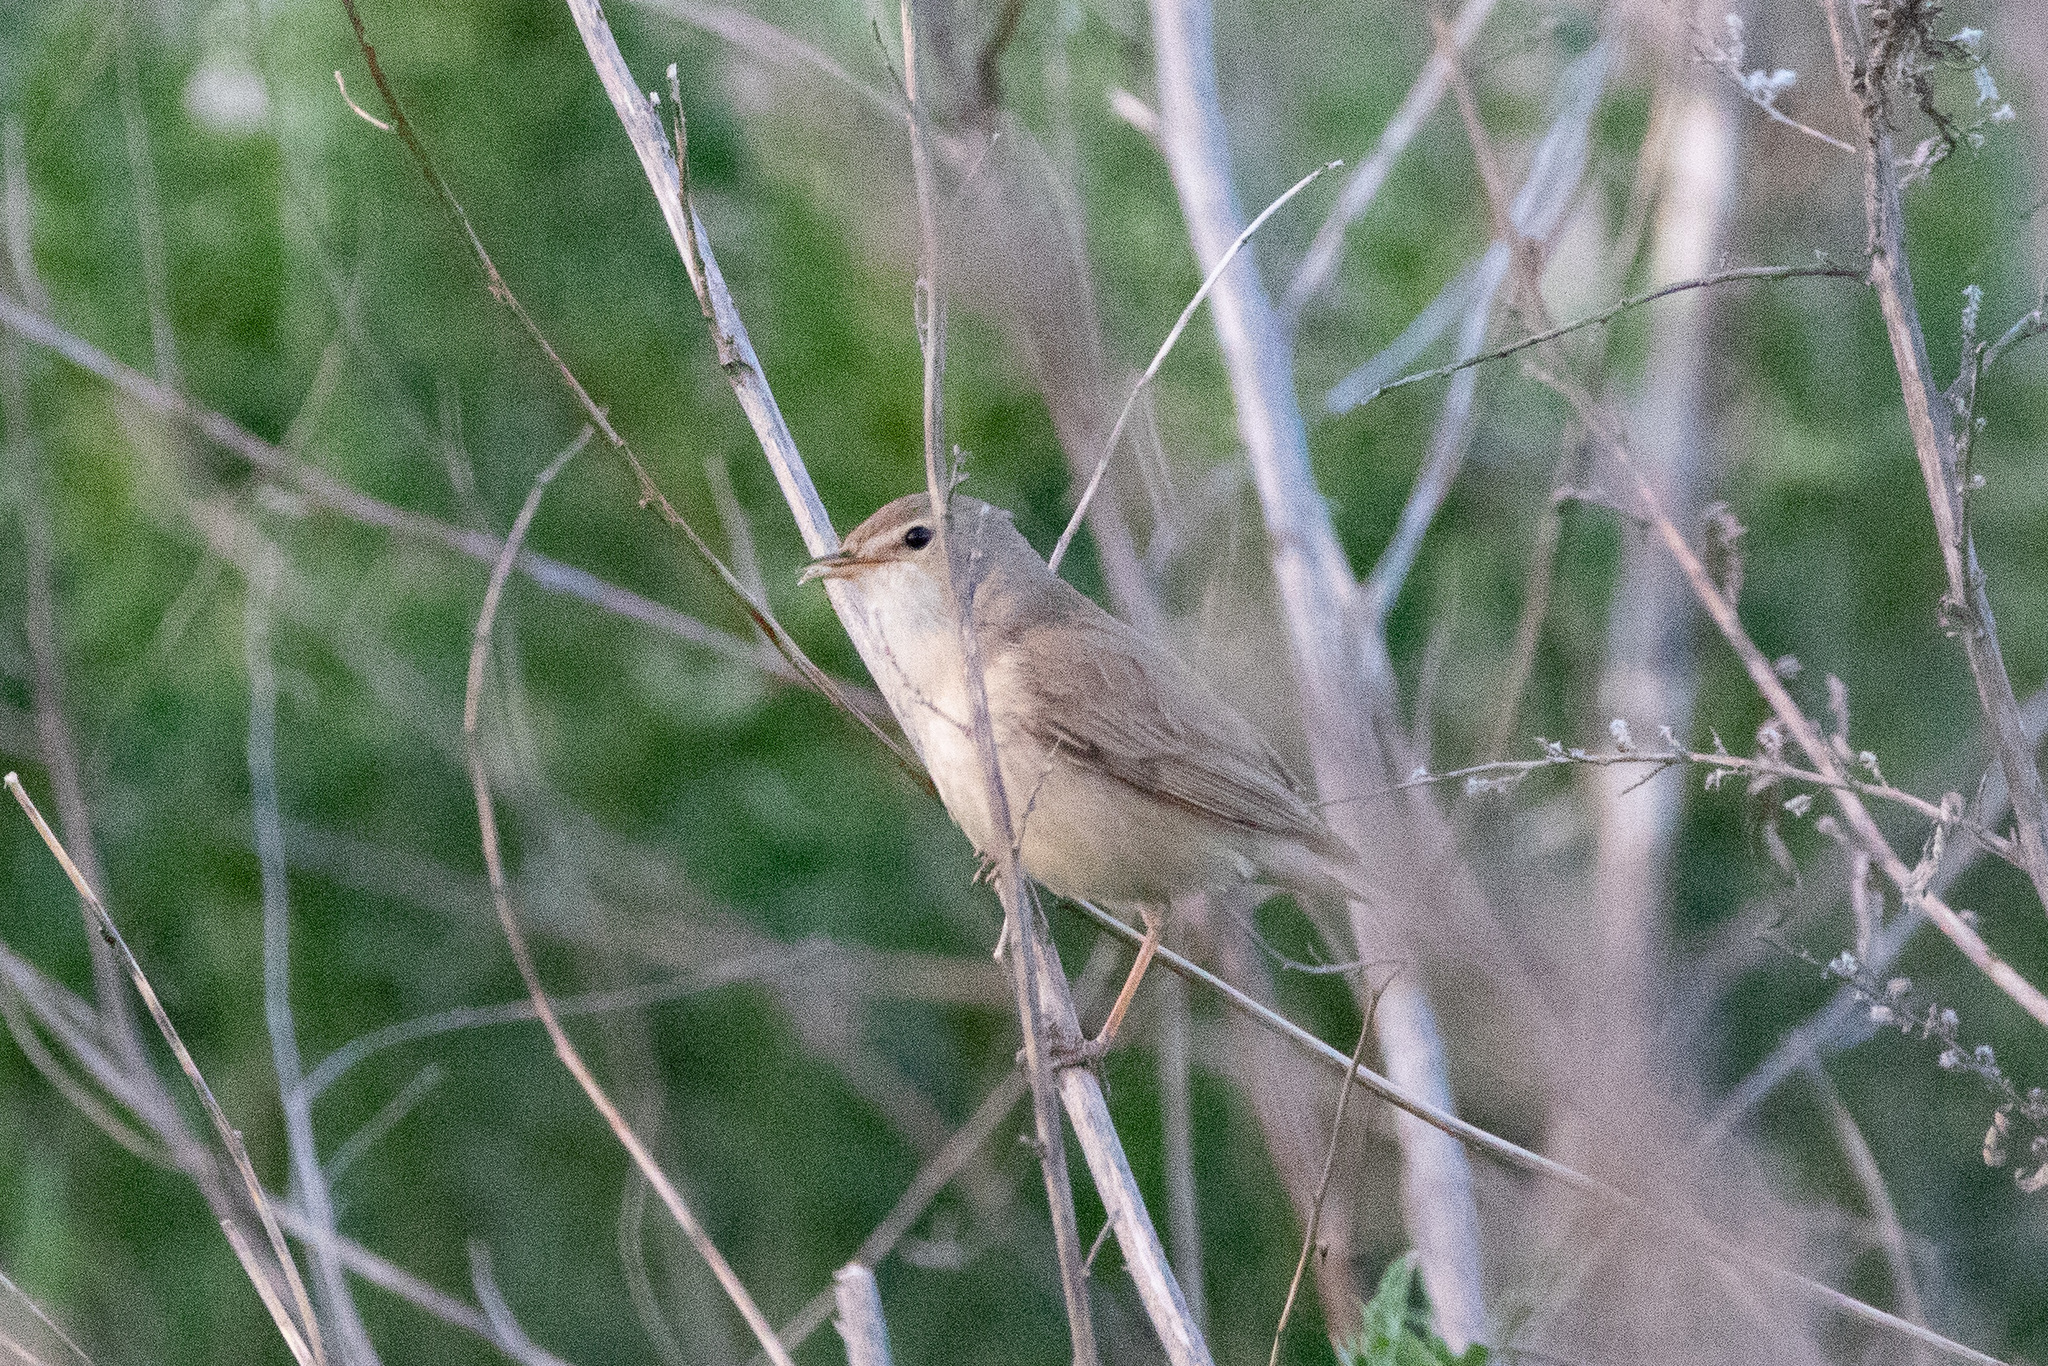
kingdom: Animalia
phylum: Chordata
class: Aves
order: Passeriformes
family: Acrocephalidae
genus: Iduna
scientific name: Iduna caligata
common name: Booted warbler
